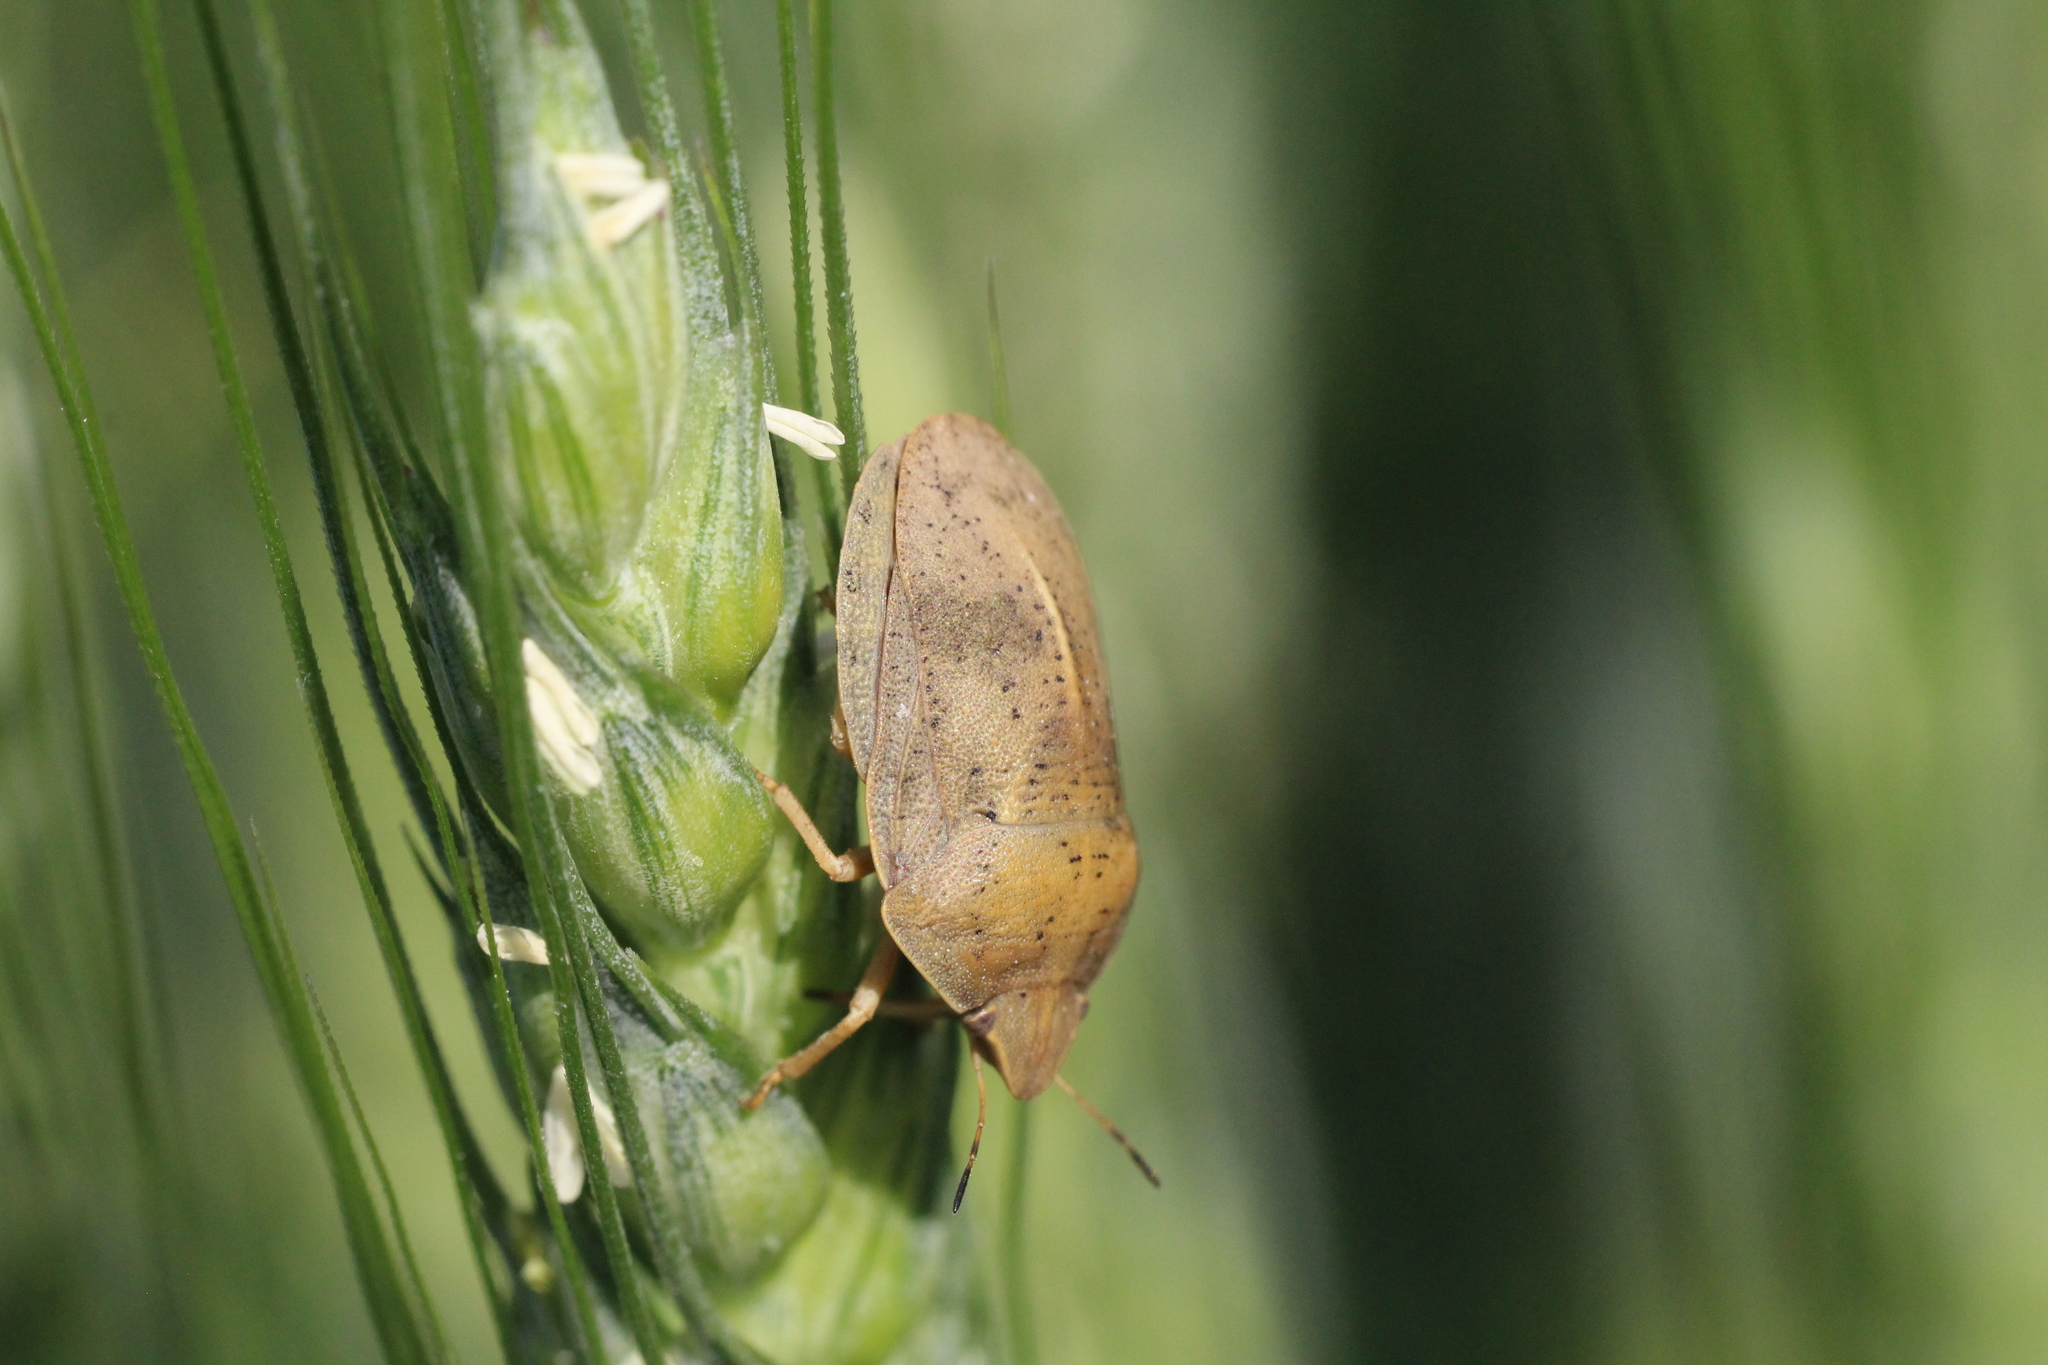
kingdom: Animalia
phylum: Arthropoda
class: Insecta
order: Hemiptera
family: Scutelleridae
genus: Eurygaster
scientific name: Eurygaster austriaca
